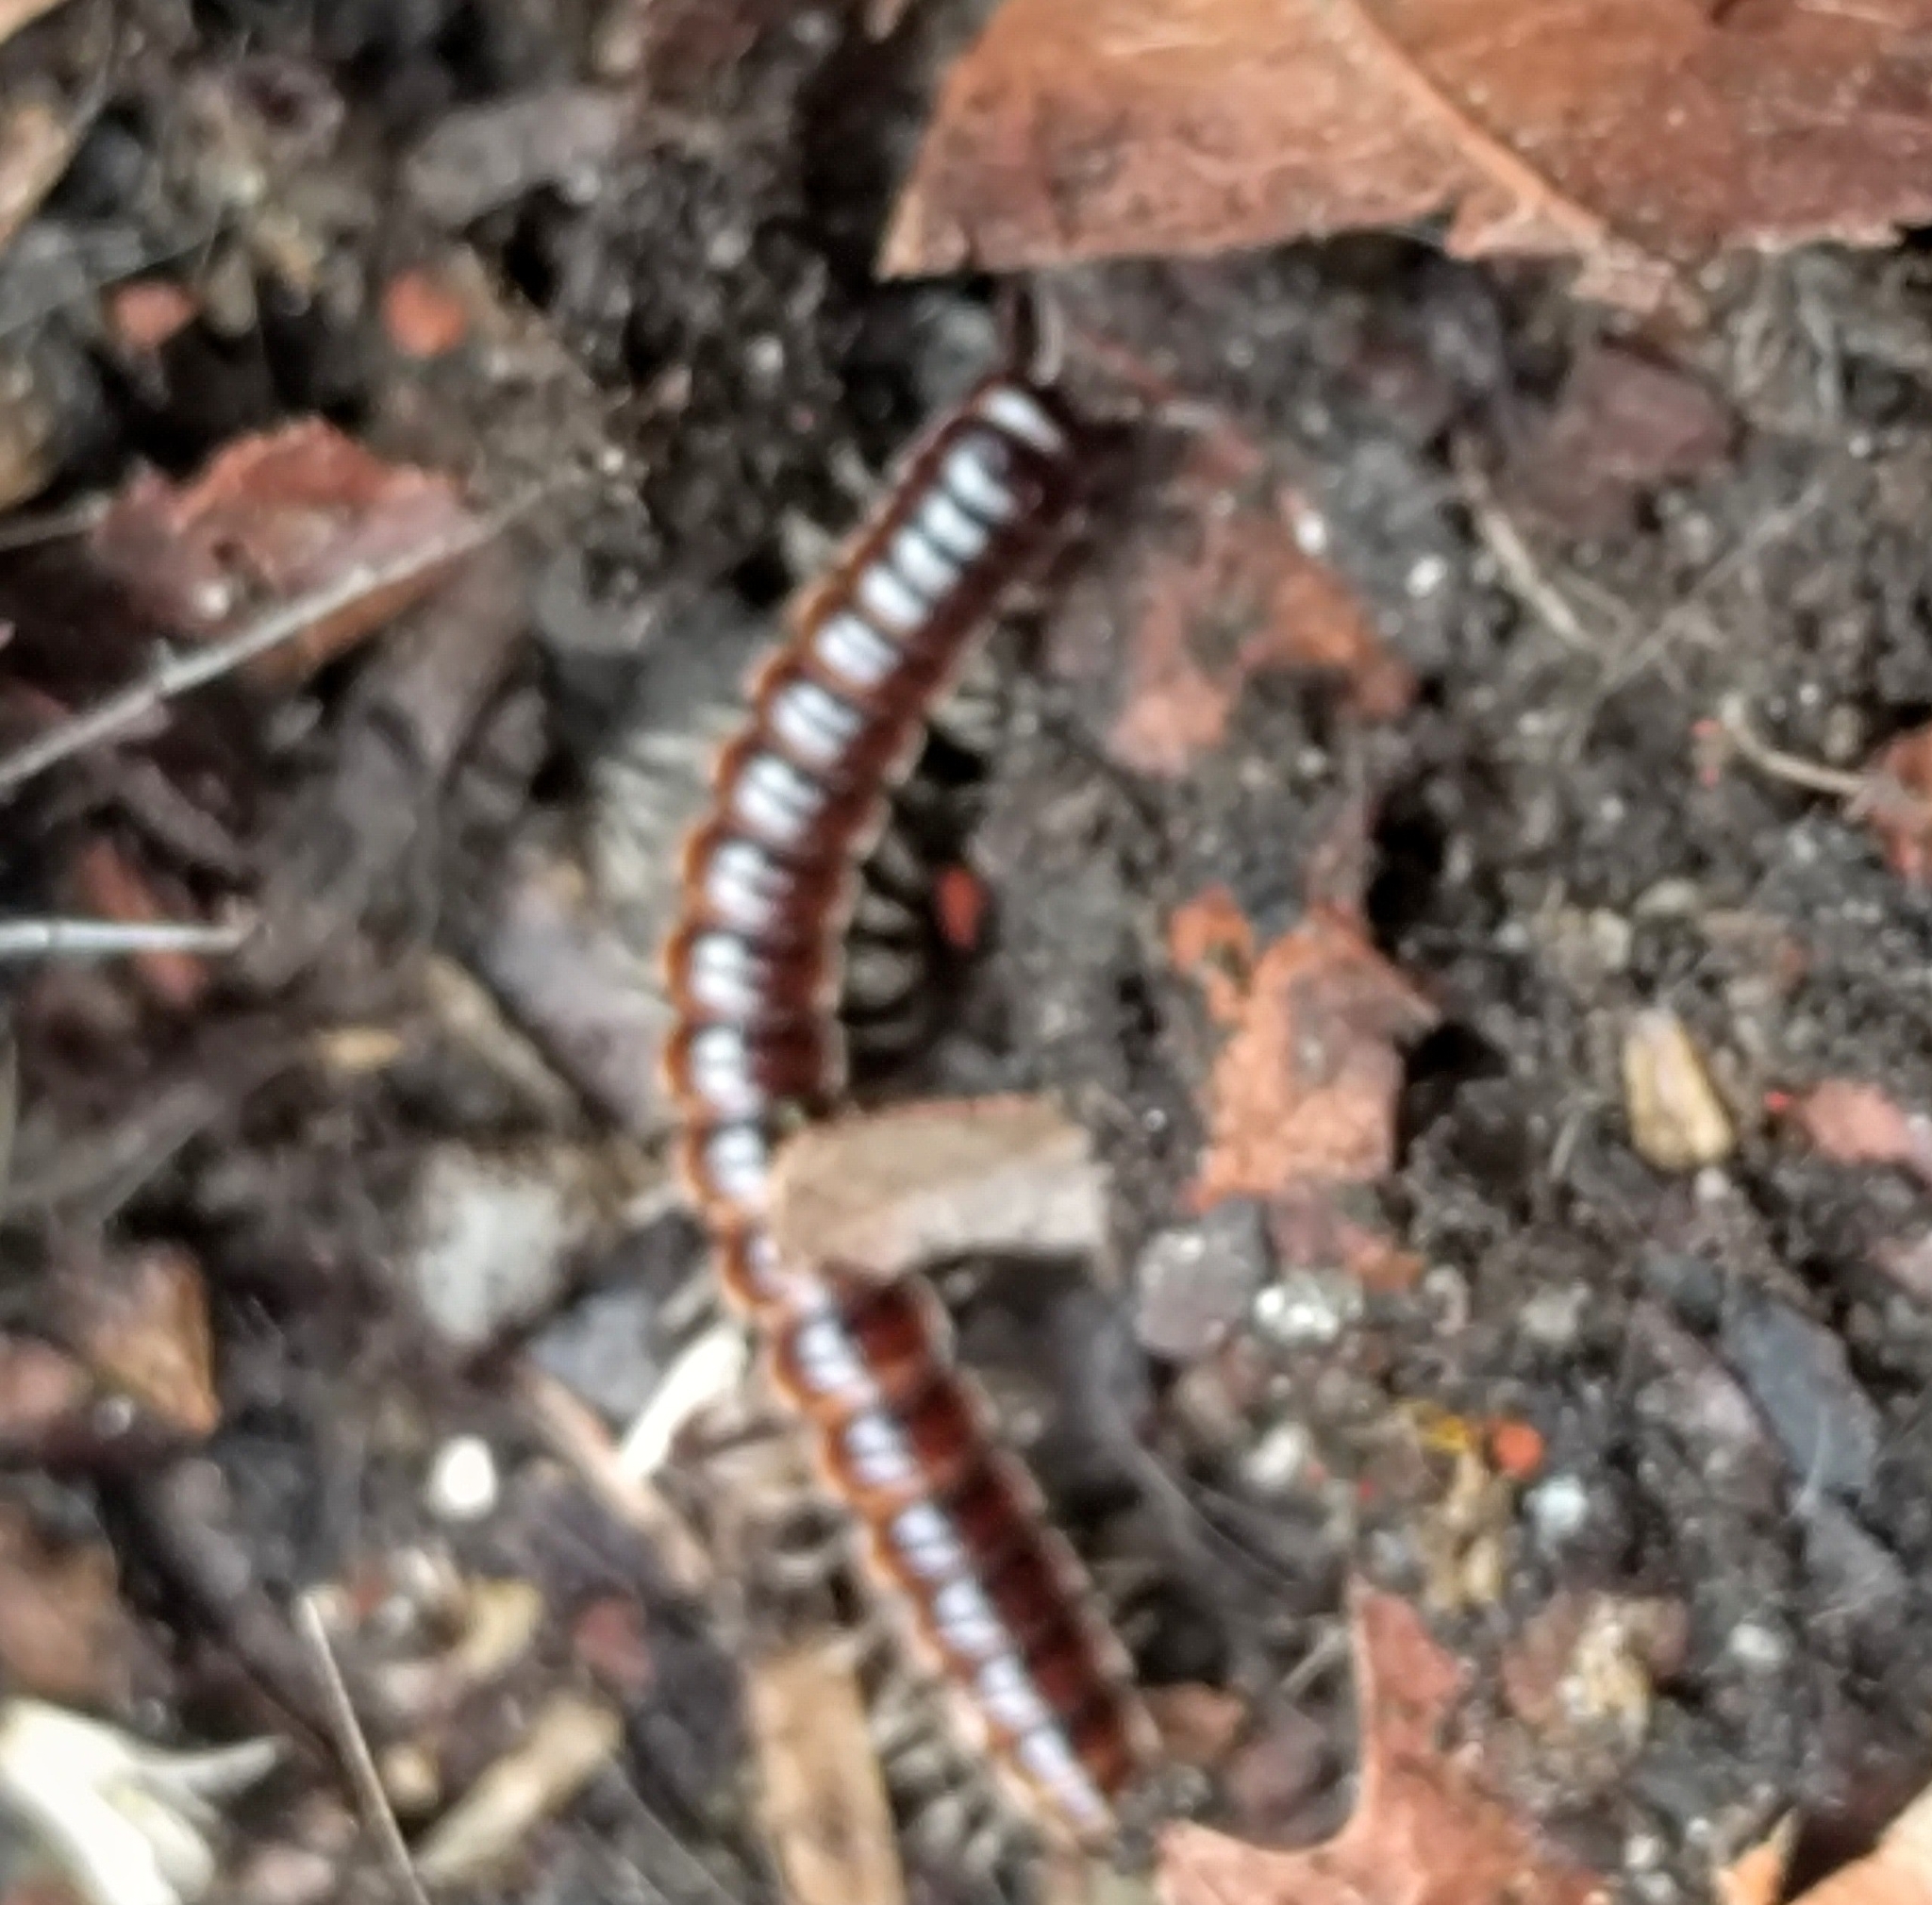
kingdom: Animalia
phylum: Arthropoda
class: Diplopoda
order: Polydesmida
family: Paradoxosomatidae
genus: Oxidus
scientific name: Oxidus gracilis
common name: Greenhouse millipede
